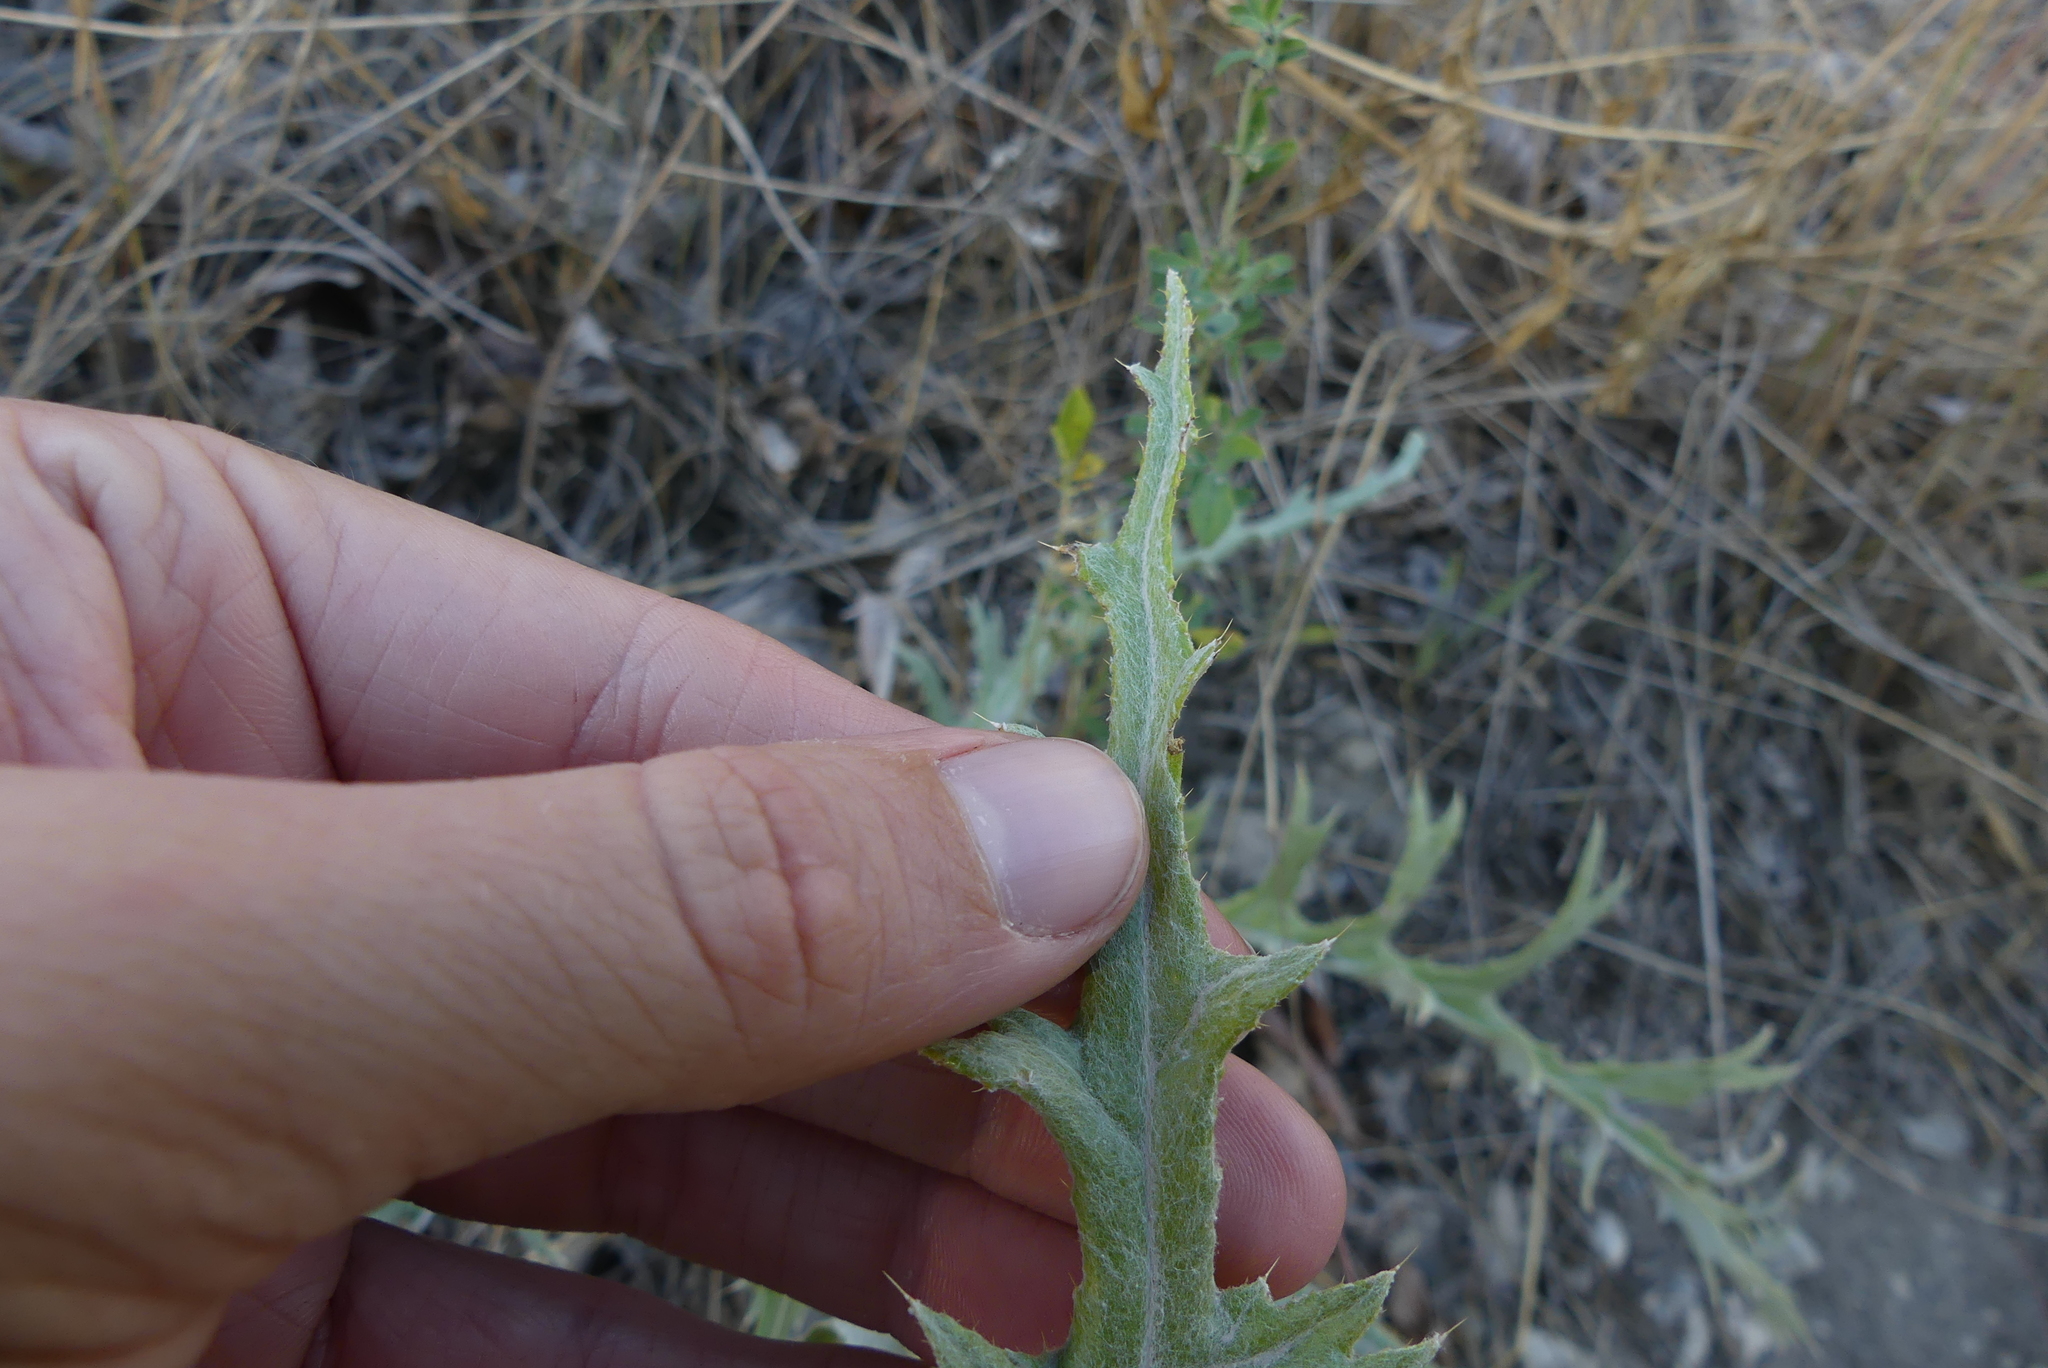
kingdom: Plantae
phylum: Tracheophyta
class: Magnoliopsida
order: Asterales
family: Asteraceae
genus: Cirsium
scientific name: Cirsium undulatum
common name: Pasture thistle
